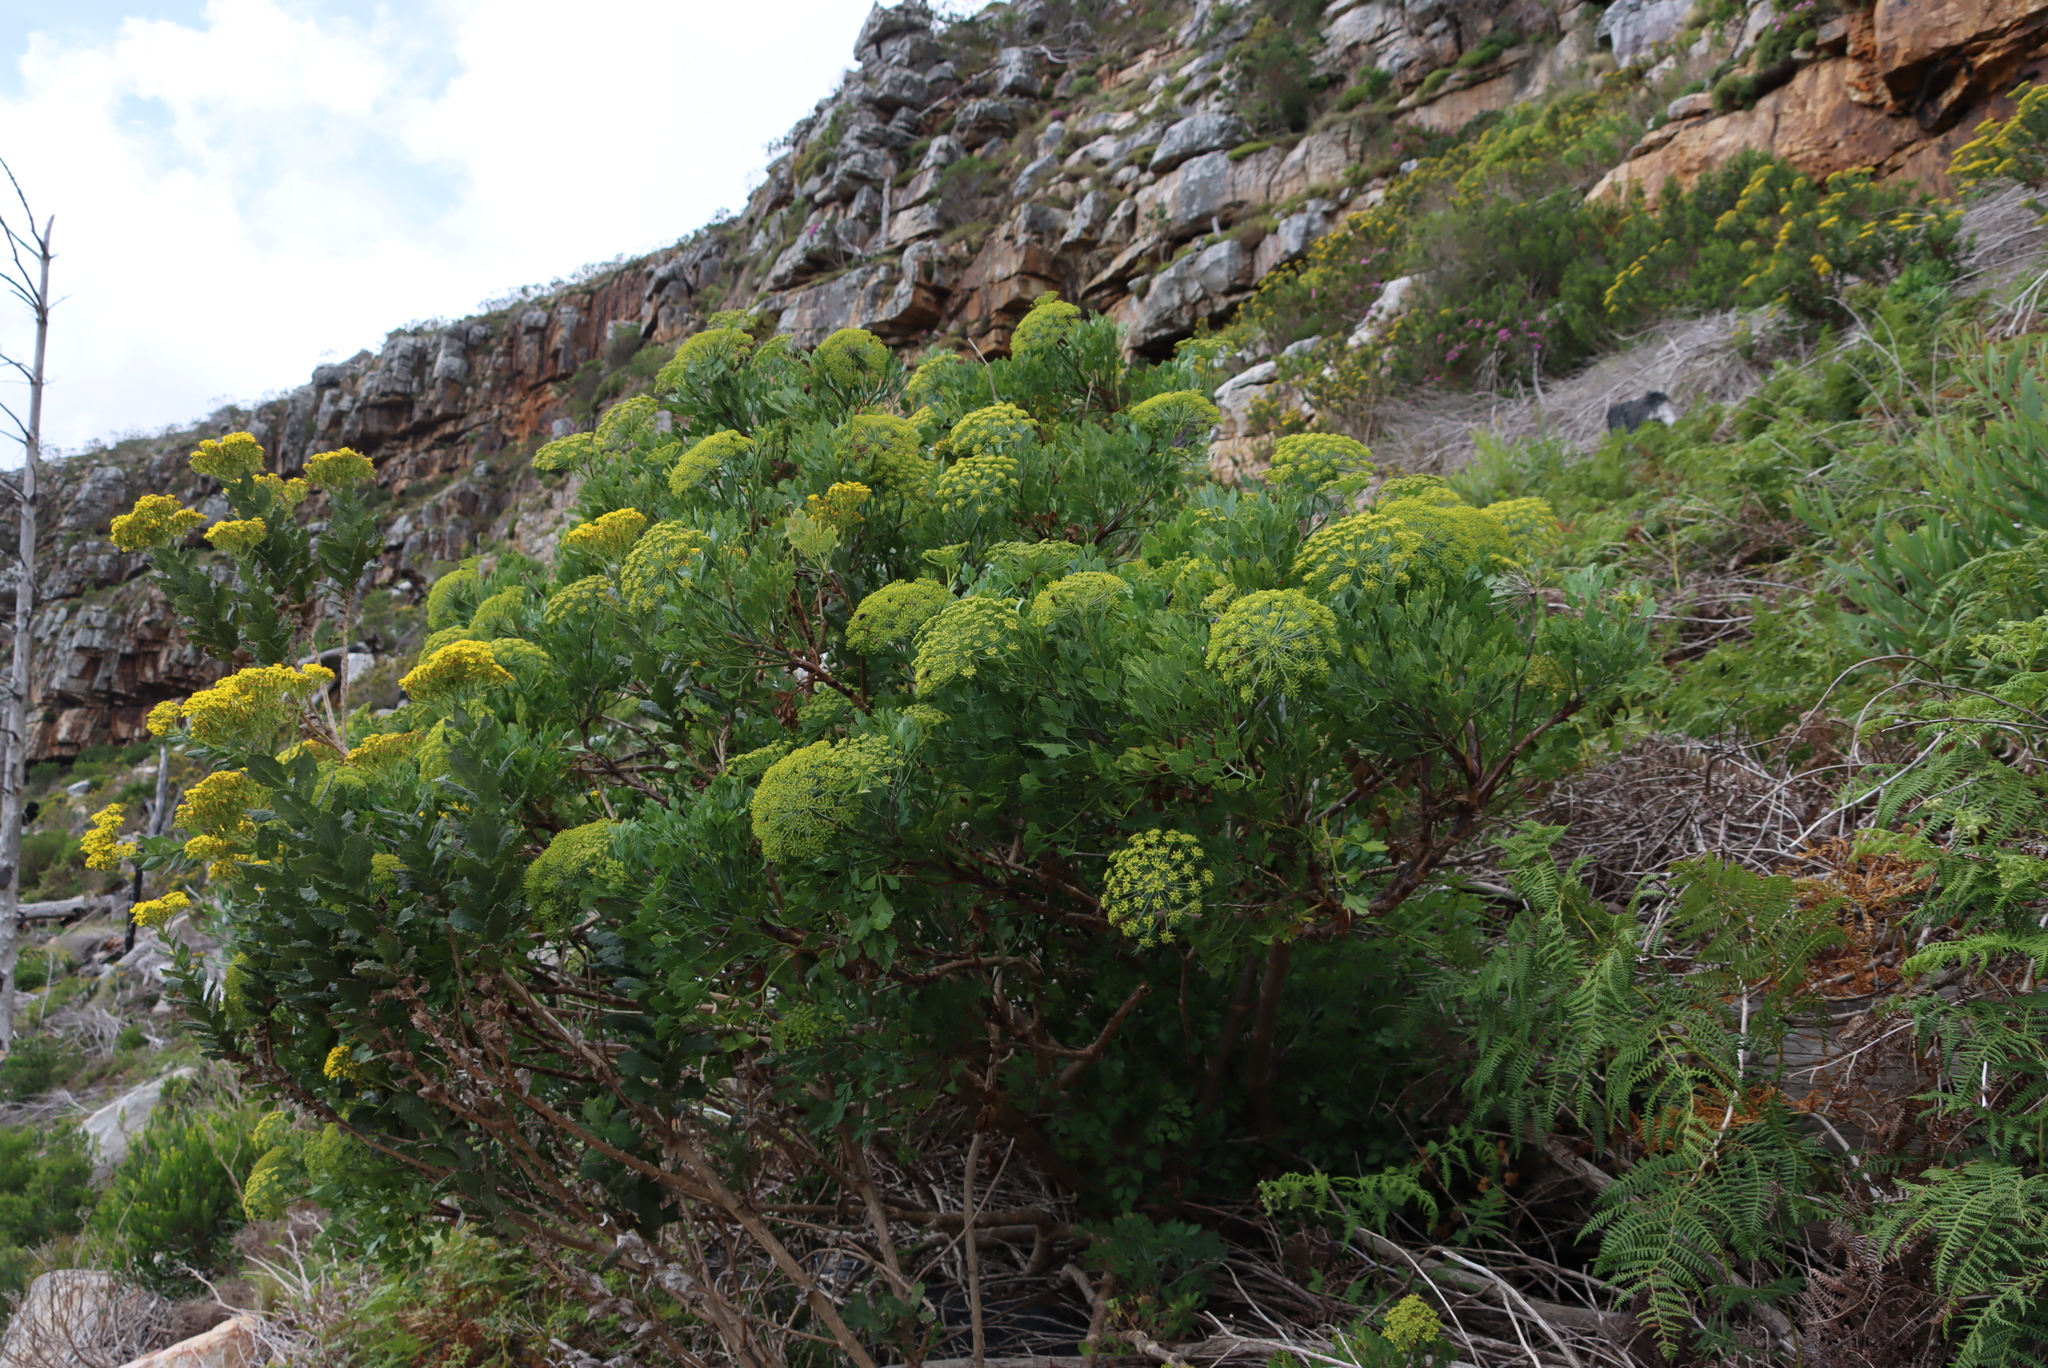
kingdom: Plantae
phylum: Tracheophyta
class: Magnoliopsida
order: Apiales
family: Apiaceae
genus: Notobubon
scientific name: Notobubon galbanum
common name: Blisterbush
